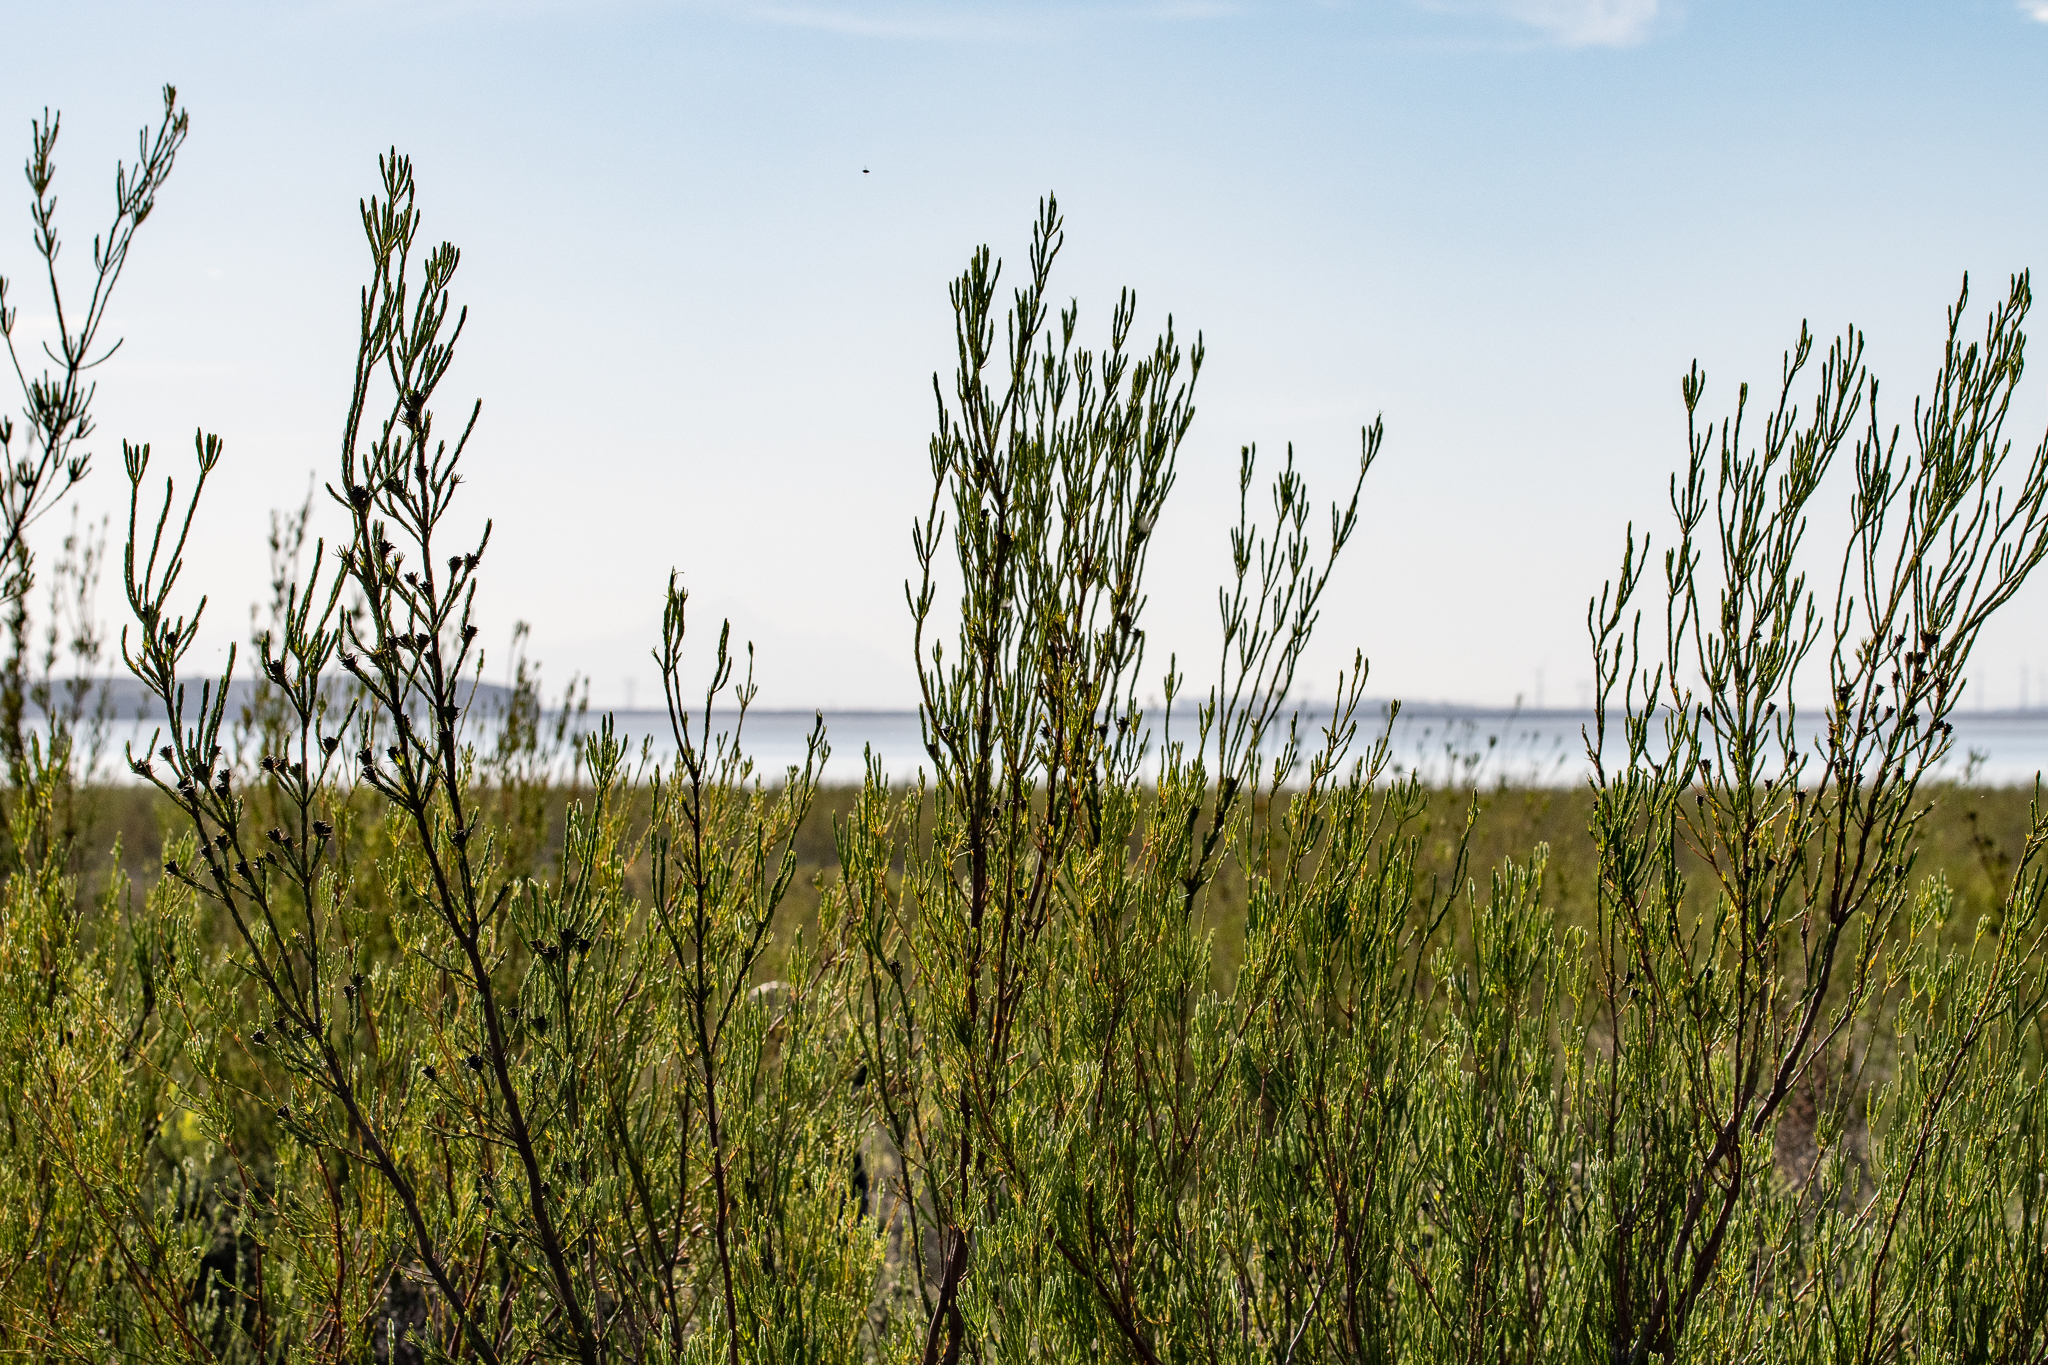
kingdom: Plantae
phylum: Tracheophyta
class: Magnoliopsida
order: Proteales
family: Proteaceae
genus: Leucadendron
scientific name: Leucadendron corymbosum
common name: Swartveld conebush
